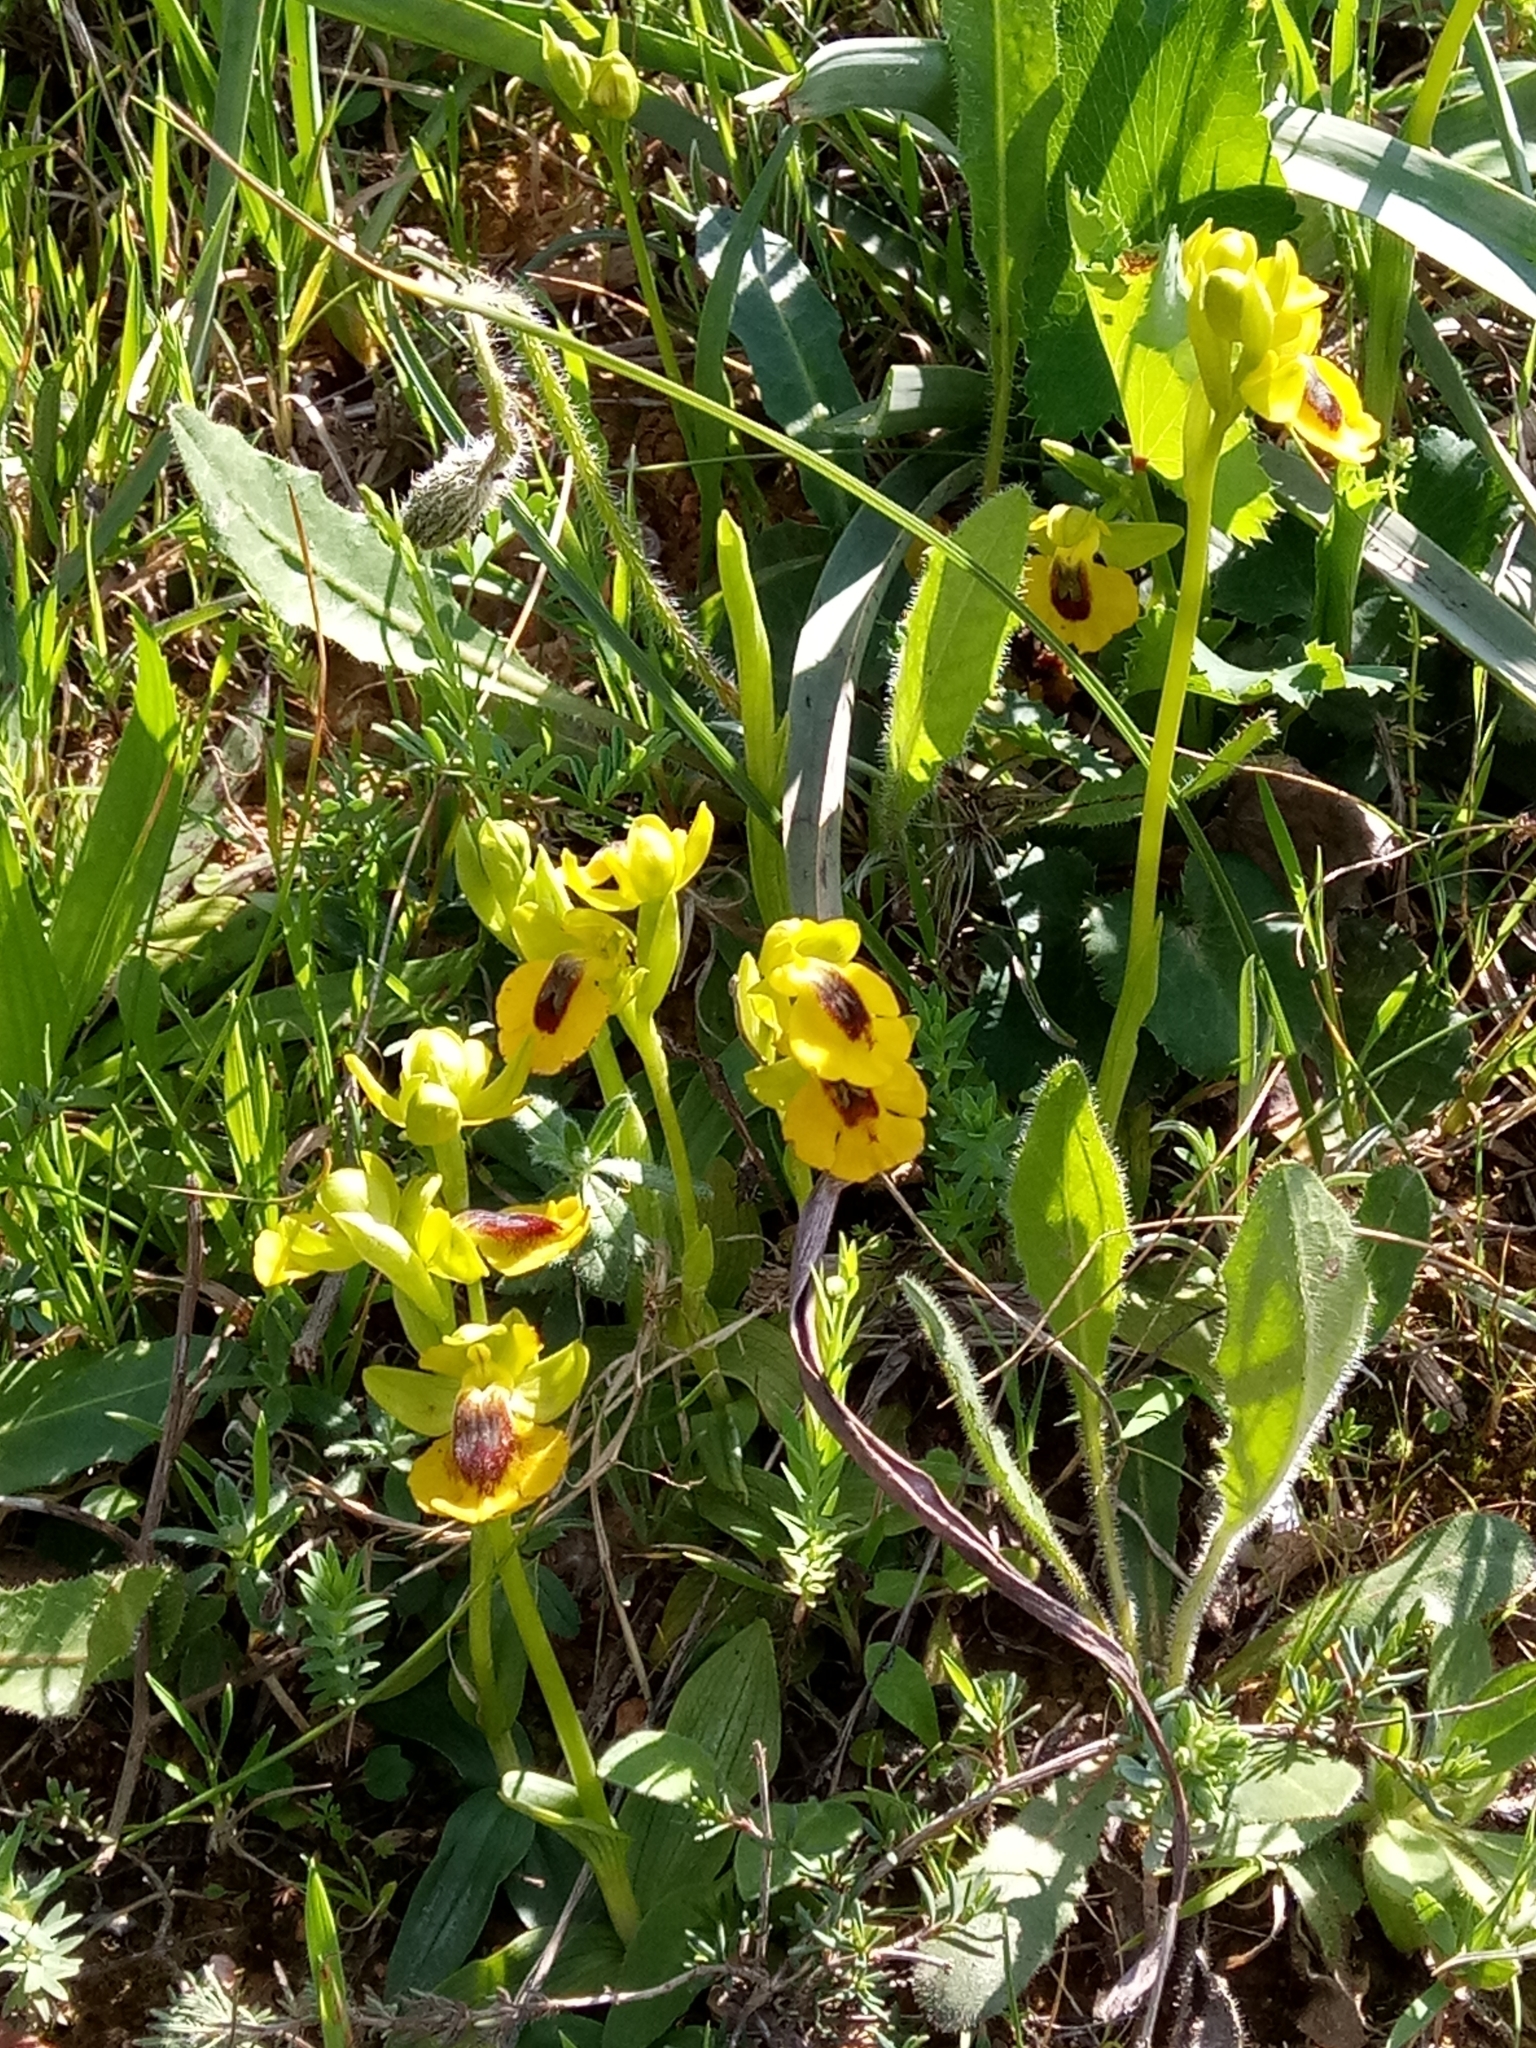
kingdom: Plantae
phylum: Tracheophyta
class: Liliopsida
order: Asparagales
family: Orchidaceae
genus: Ophrys
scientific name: Ophrys lutea
